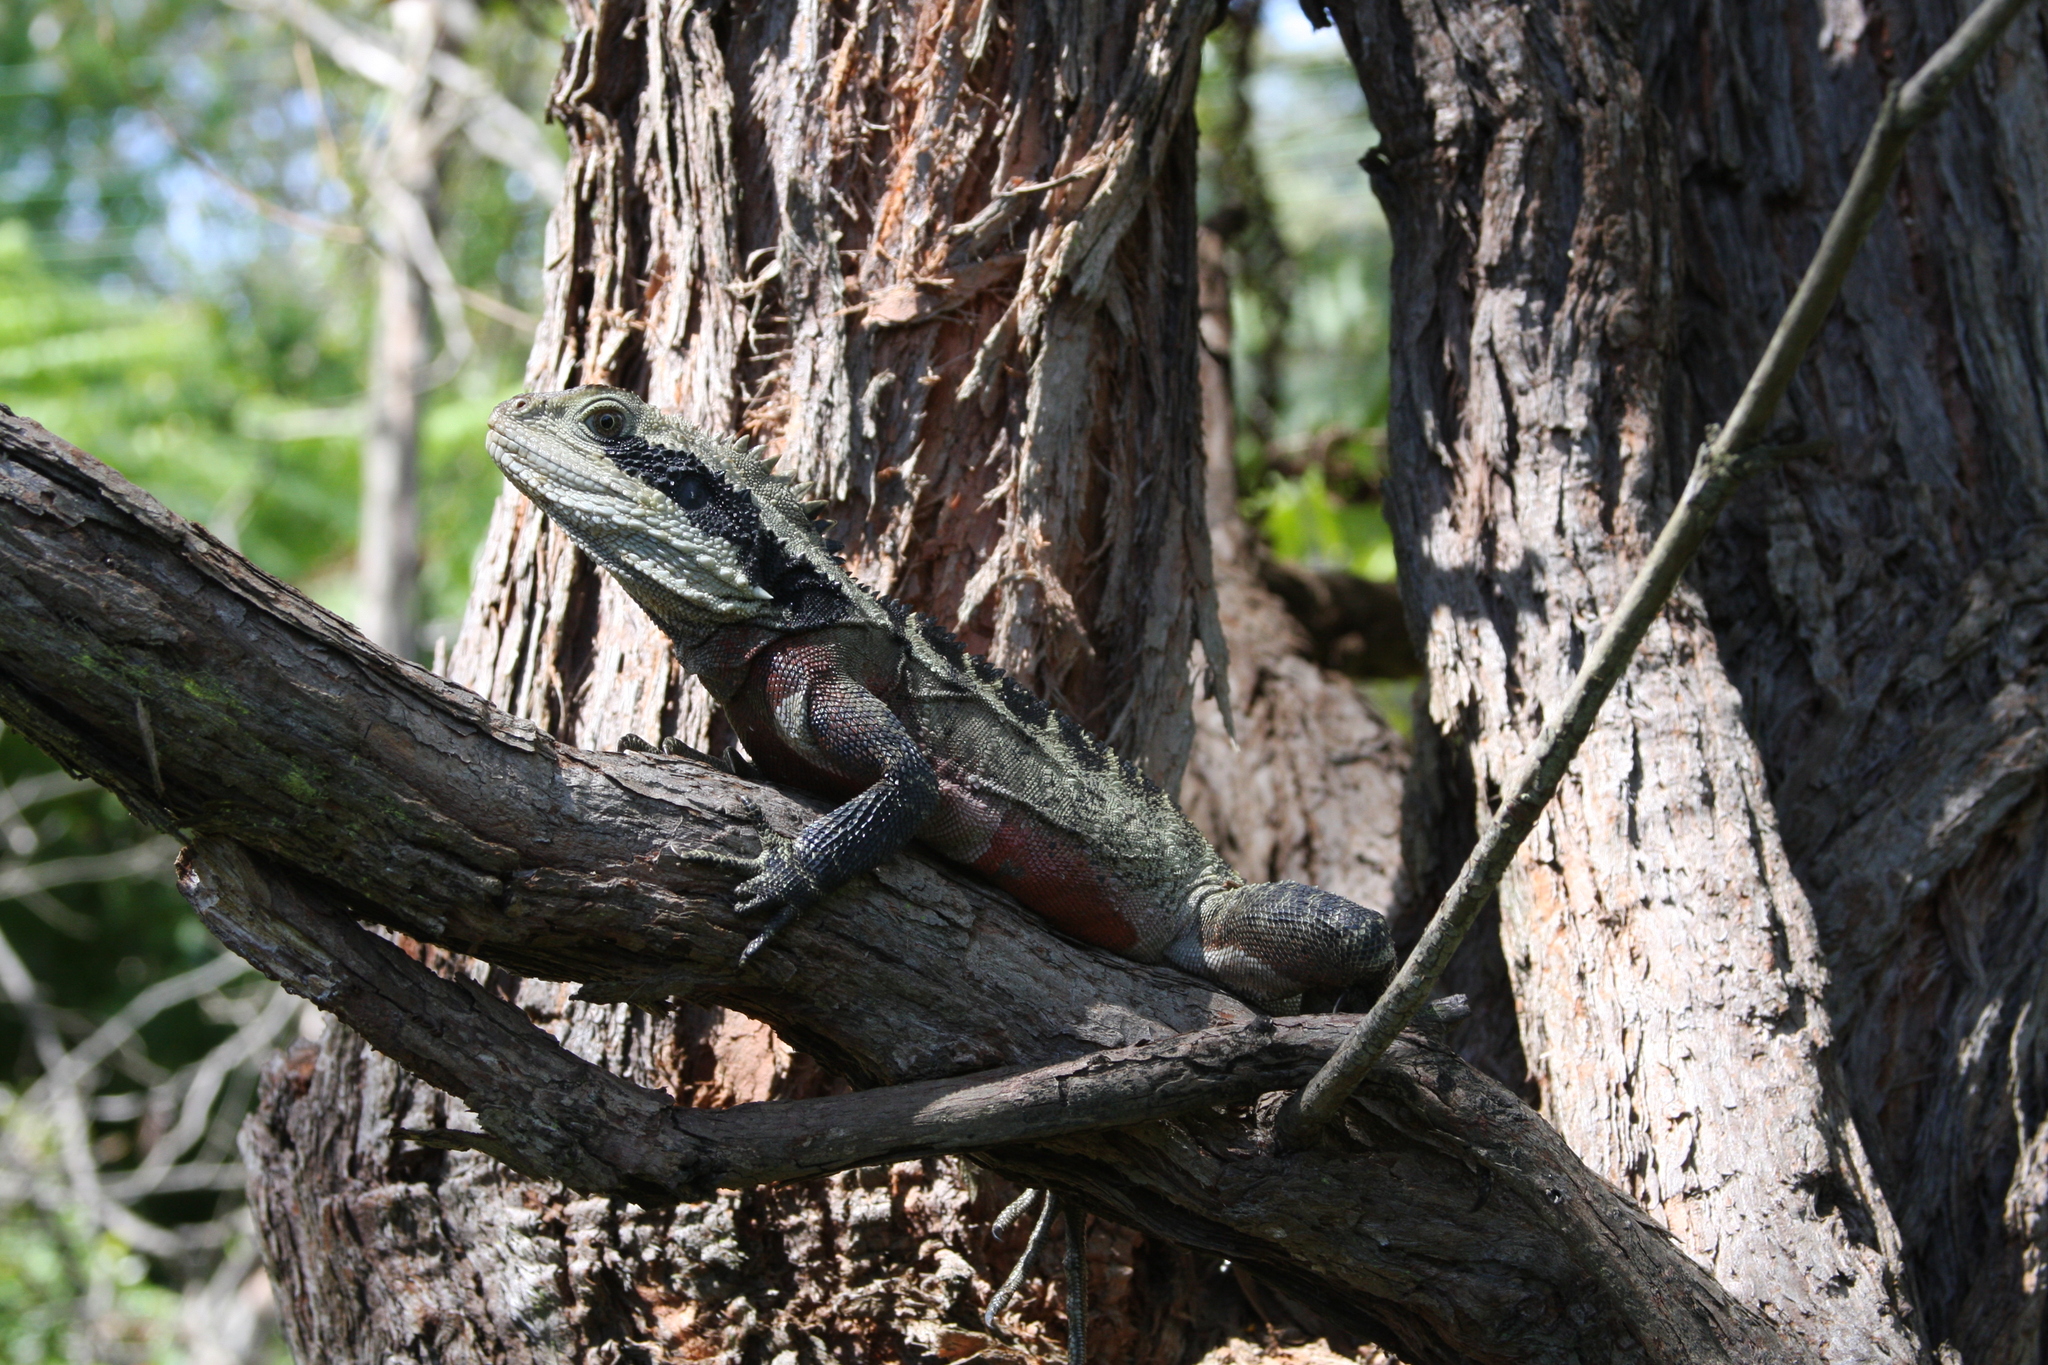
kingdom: Animalia
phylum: Chordata
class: Squamata
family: Agamidae
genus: Intellagama
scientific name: Intellagama lesueurii
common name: Eastern water dragon
